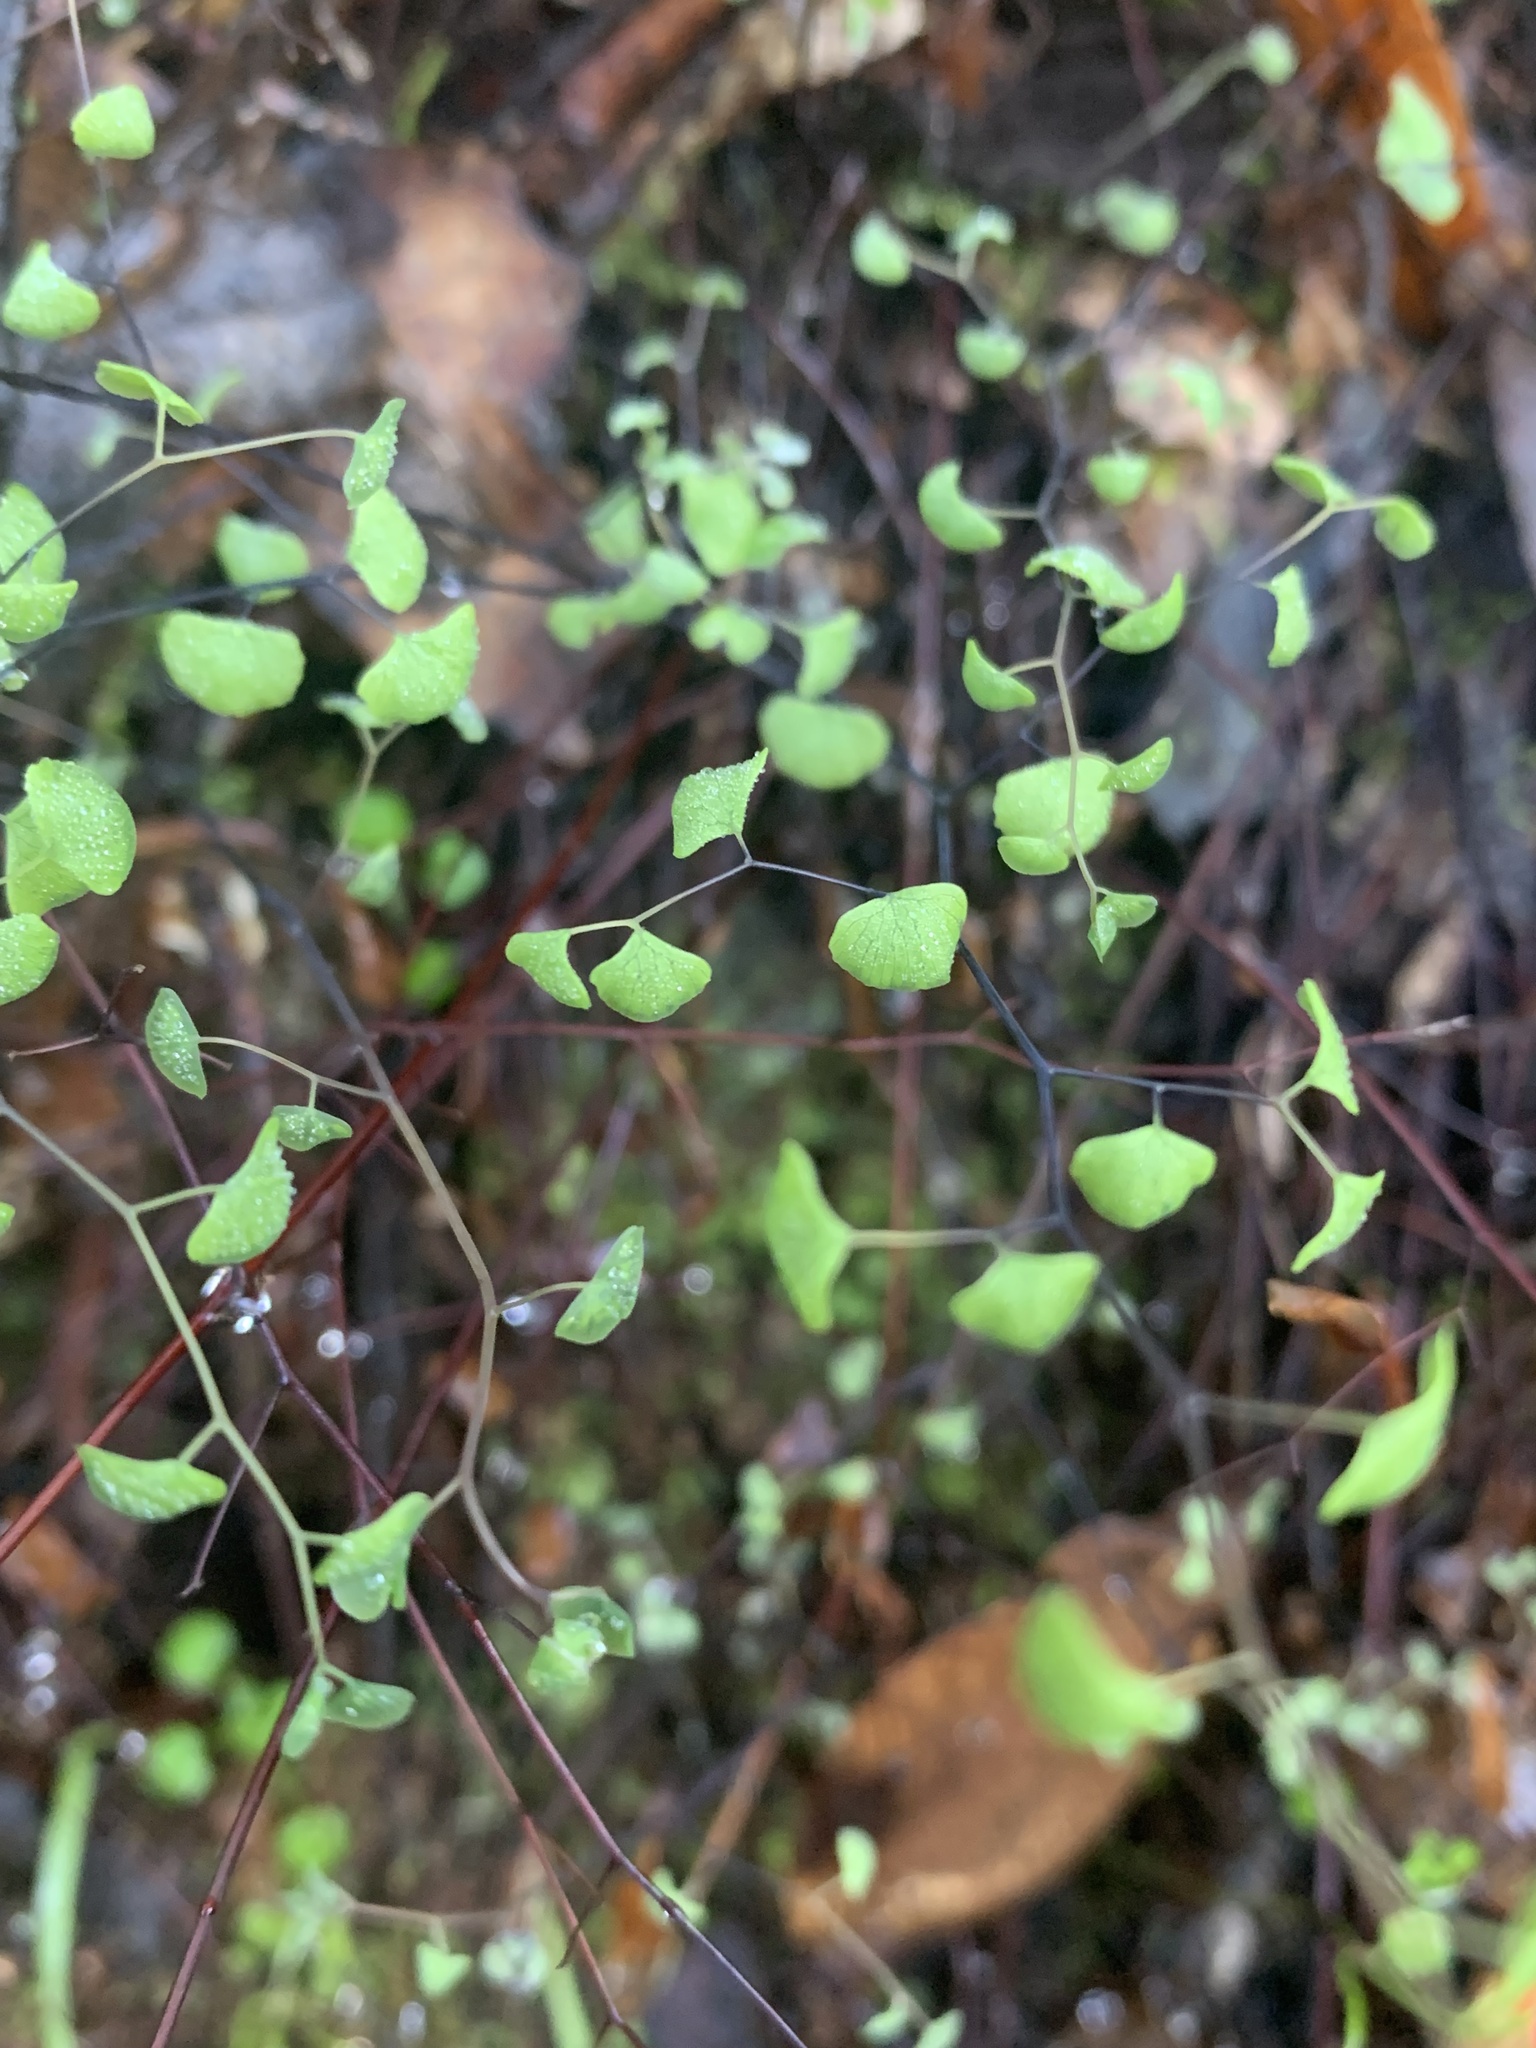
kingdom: Plantae
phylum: Tracheophyta
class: Polypodiopsida
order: Polypodiales
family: Pteridaceae
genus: Adiantum
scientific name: Adiantum jordanii
